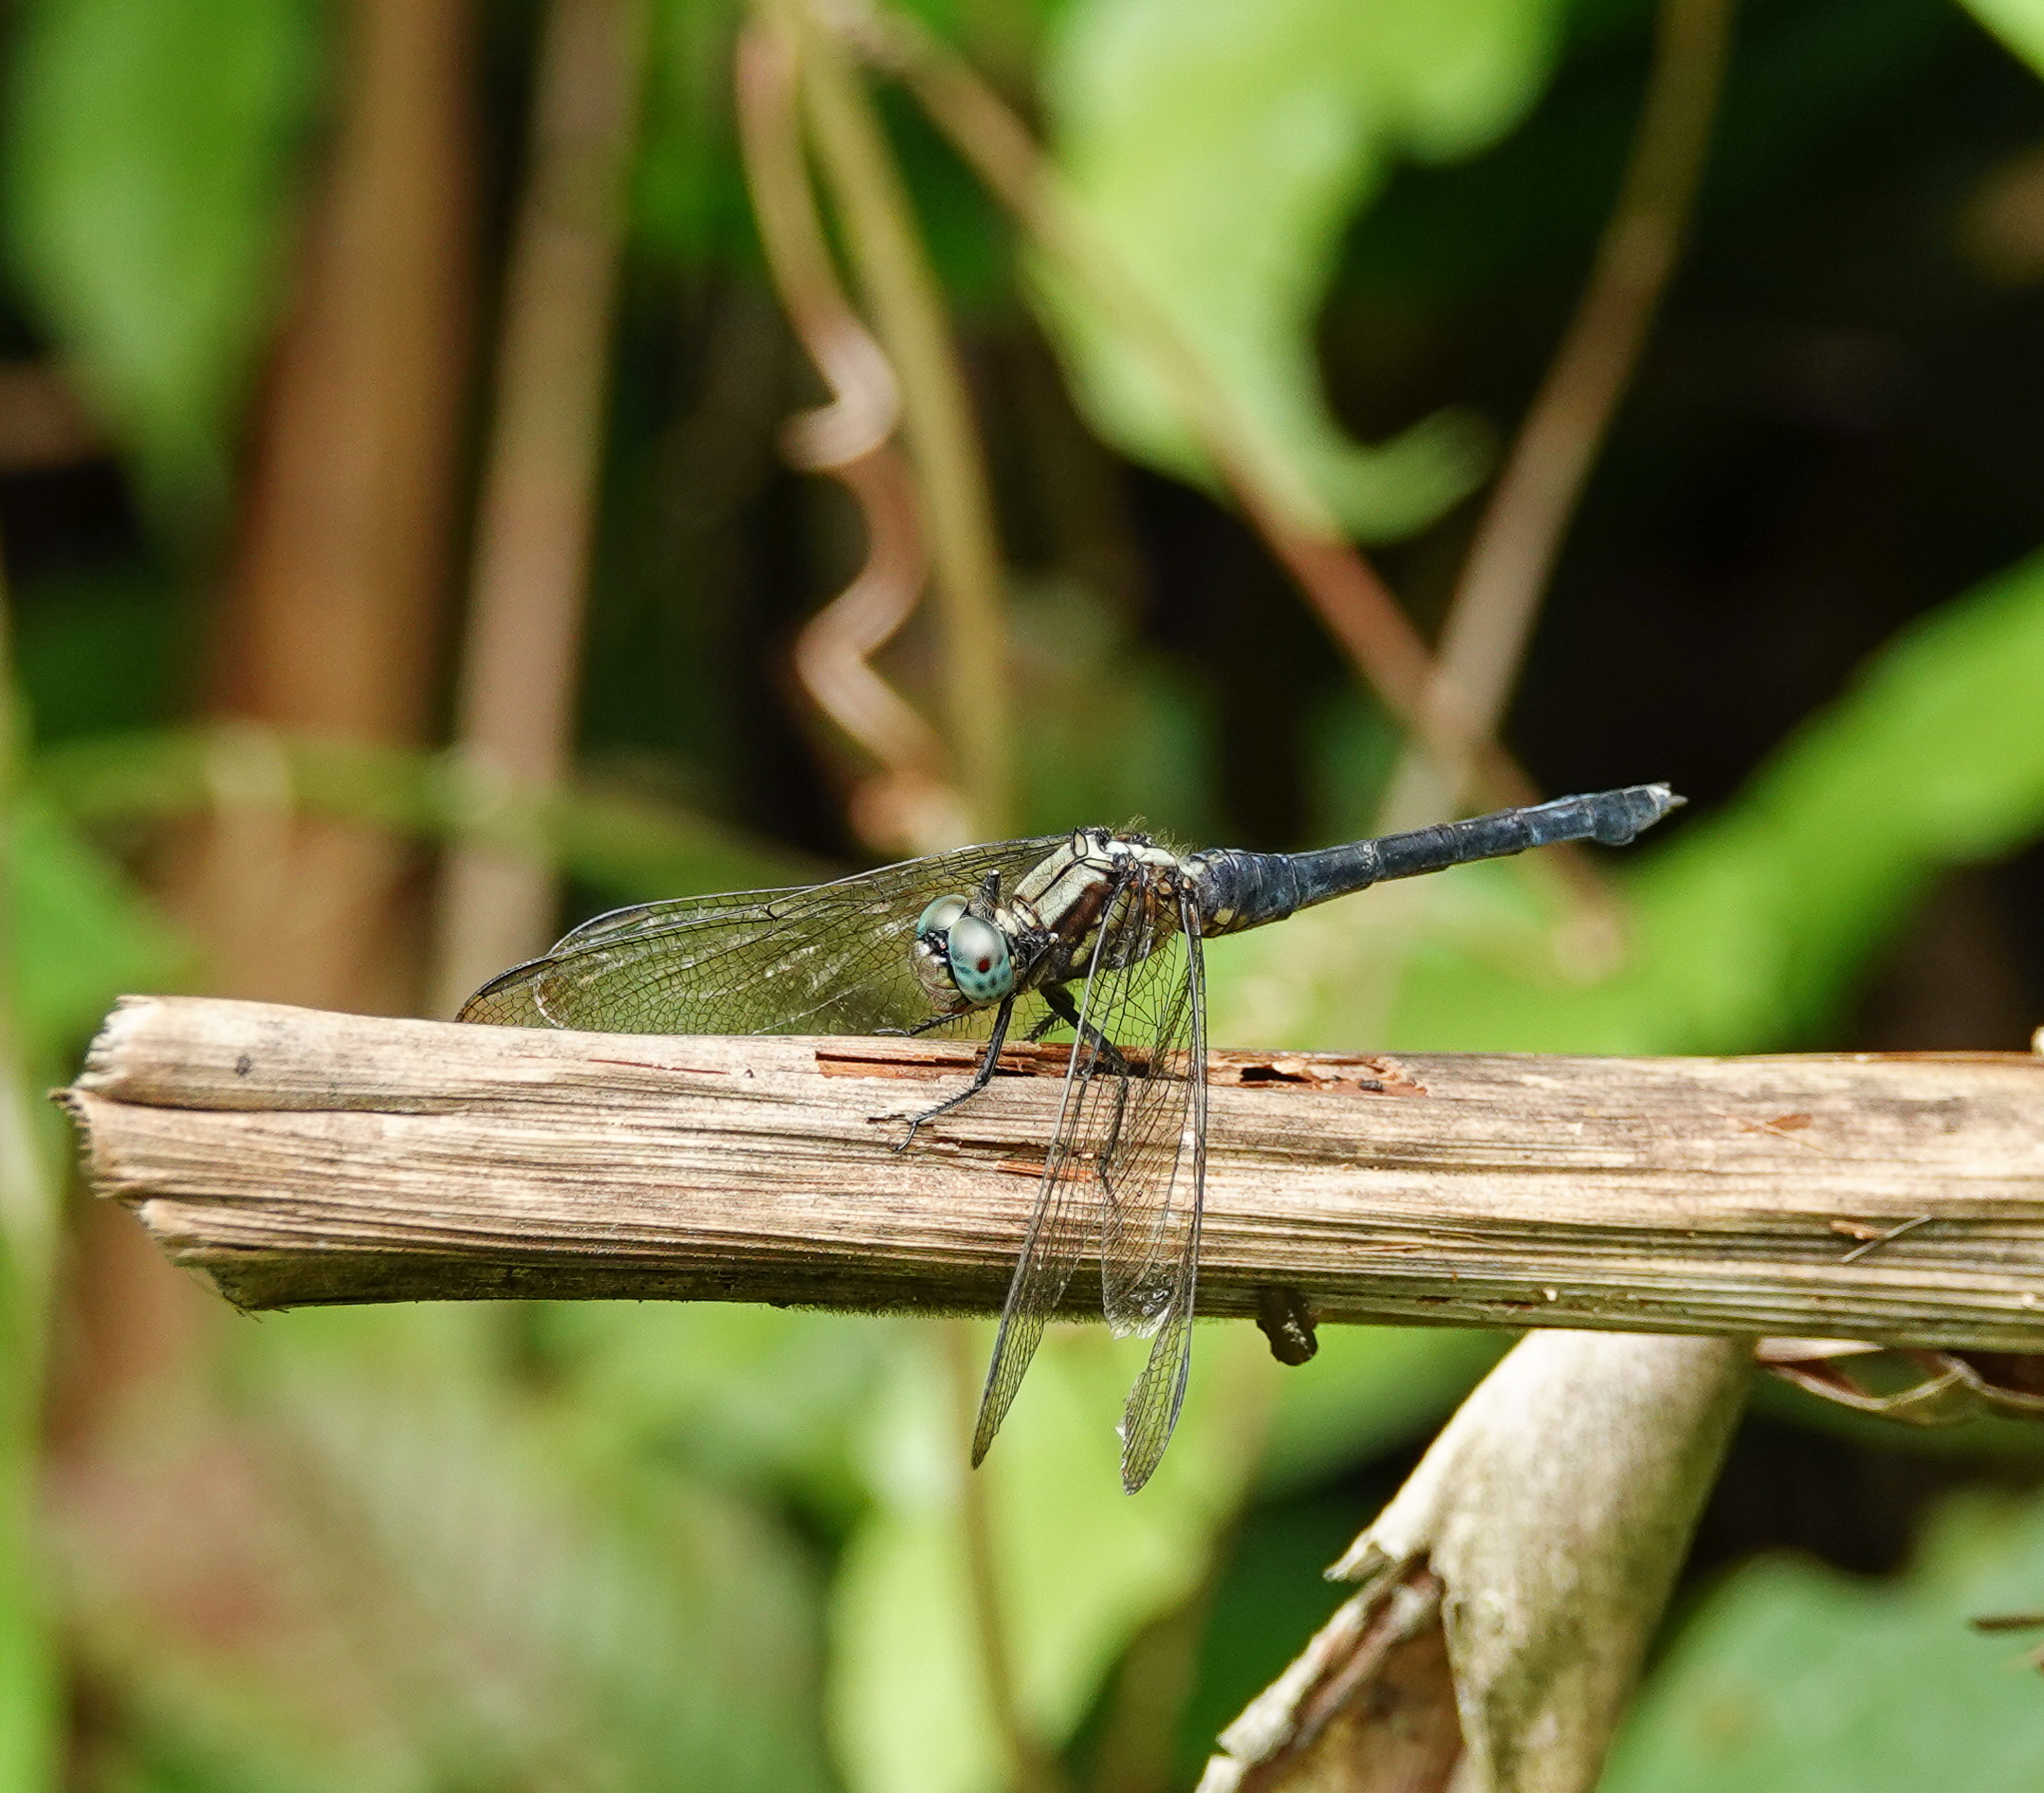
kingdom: Animalia
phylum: Arthropoda
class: Insecta
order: Odonata
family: Libellulidae
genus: Orthetrum
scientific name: Orthetrum triangulare
